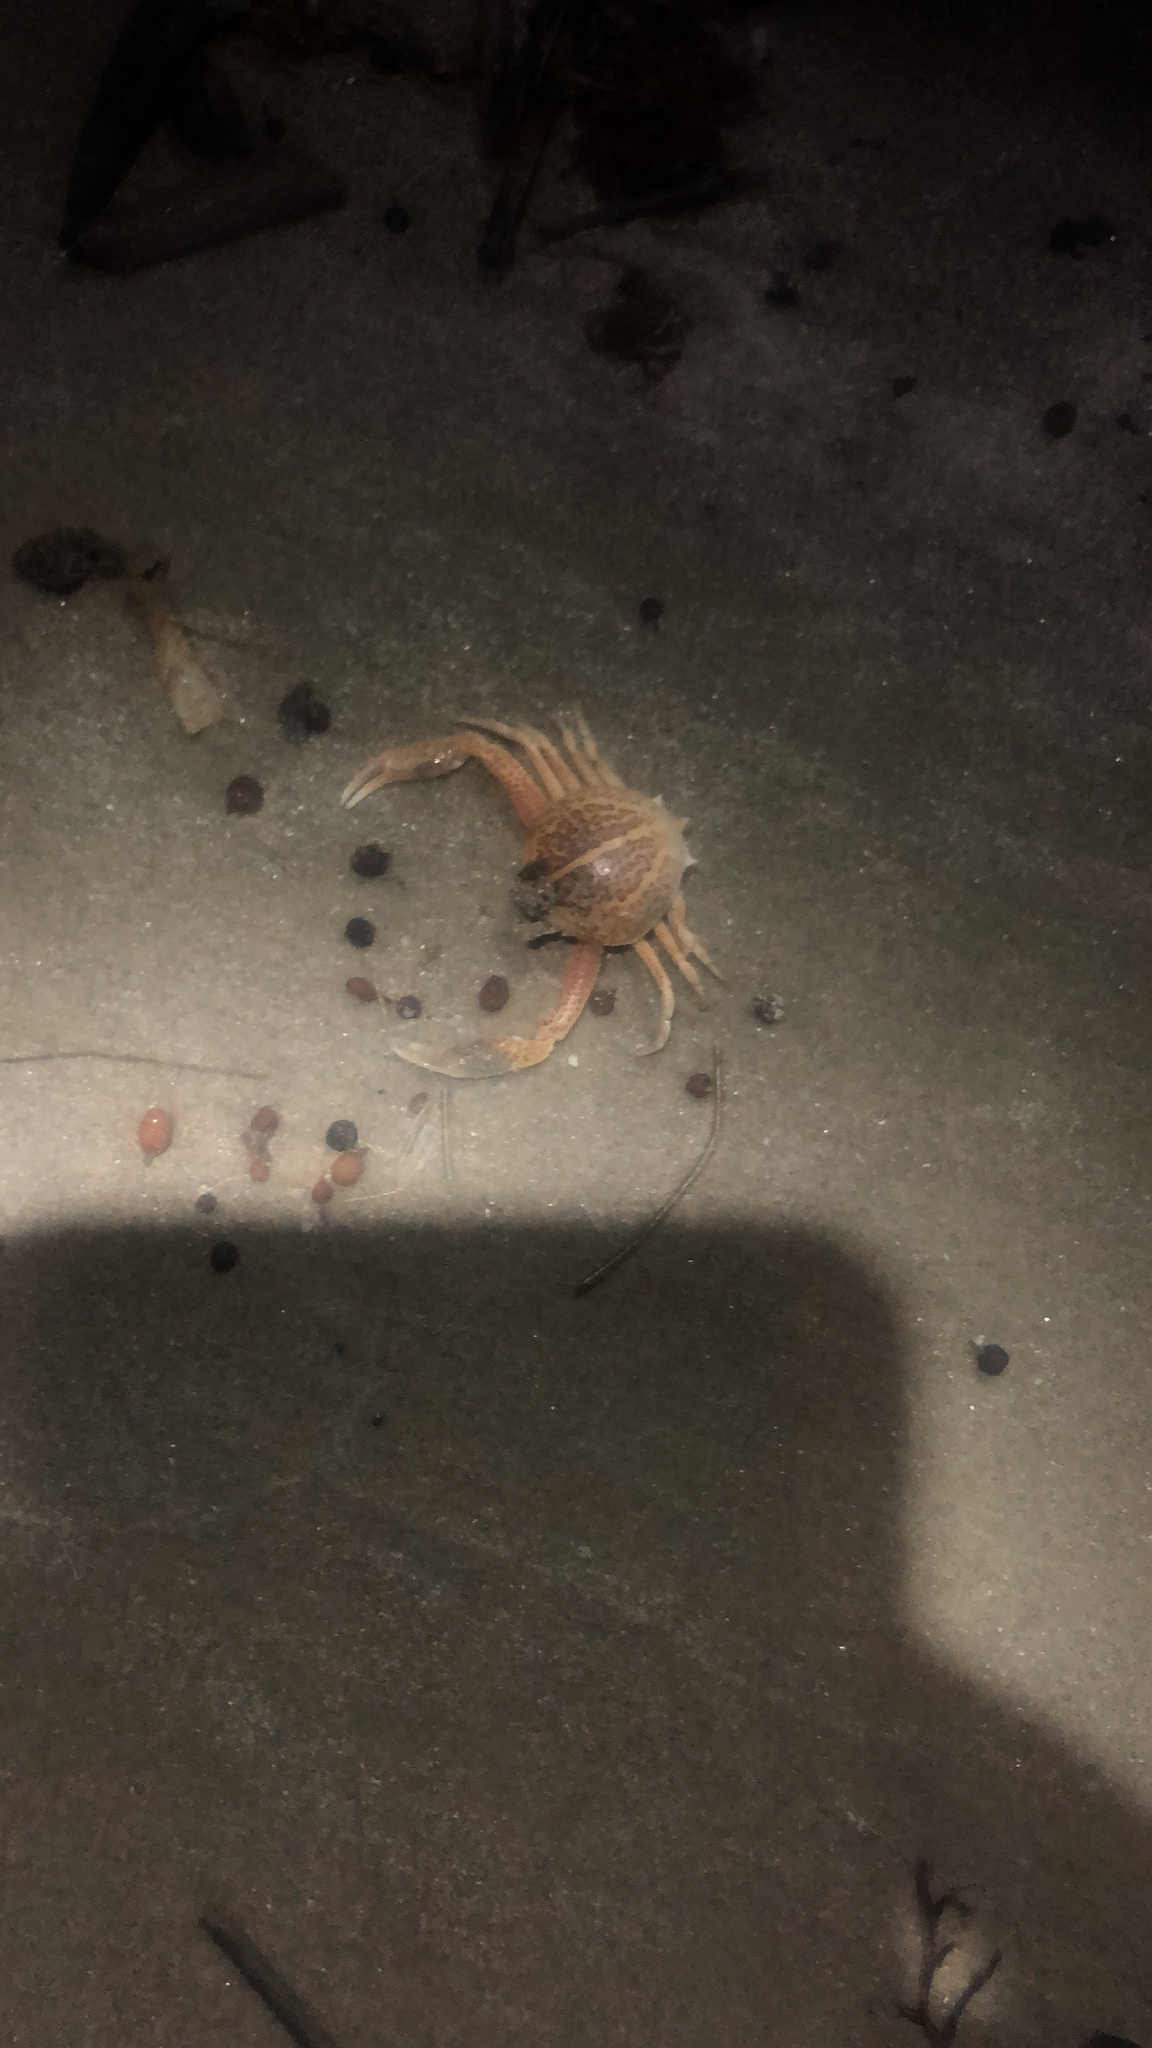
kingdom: Animalia
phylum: Arthropoda
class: Malacostraca
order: Decapoda
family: Leucosiidae
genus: Persephona
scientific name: Persephona aquilonaris
